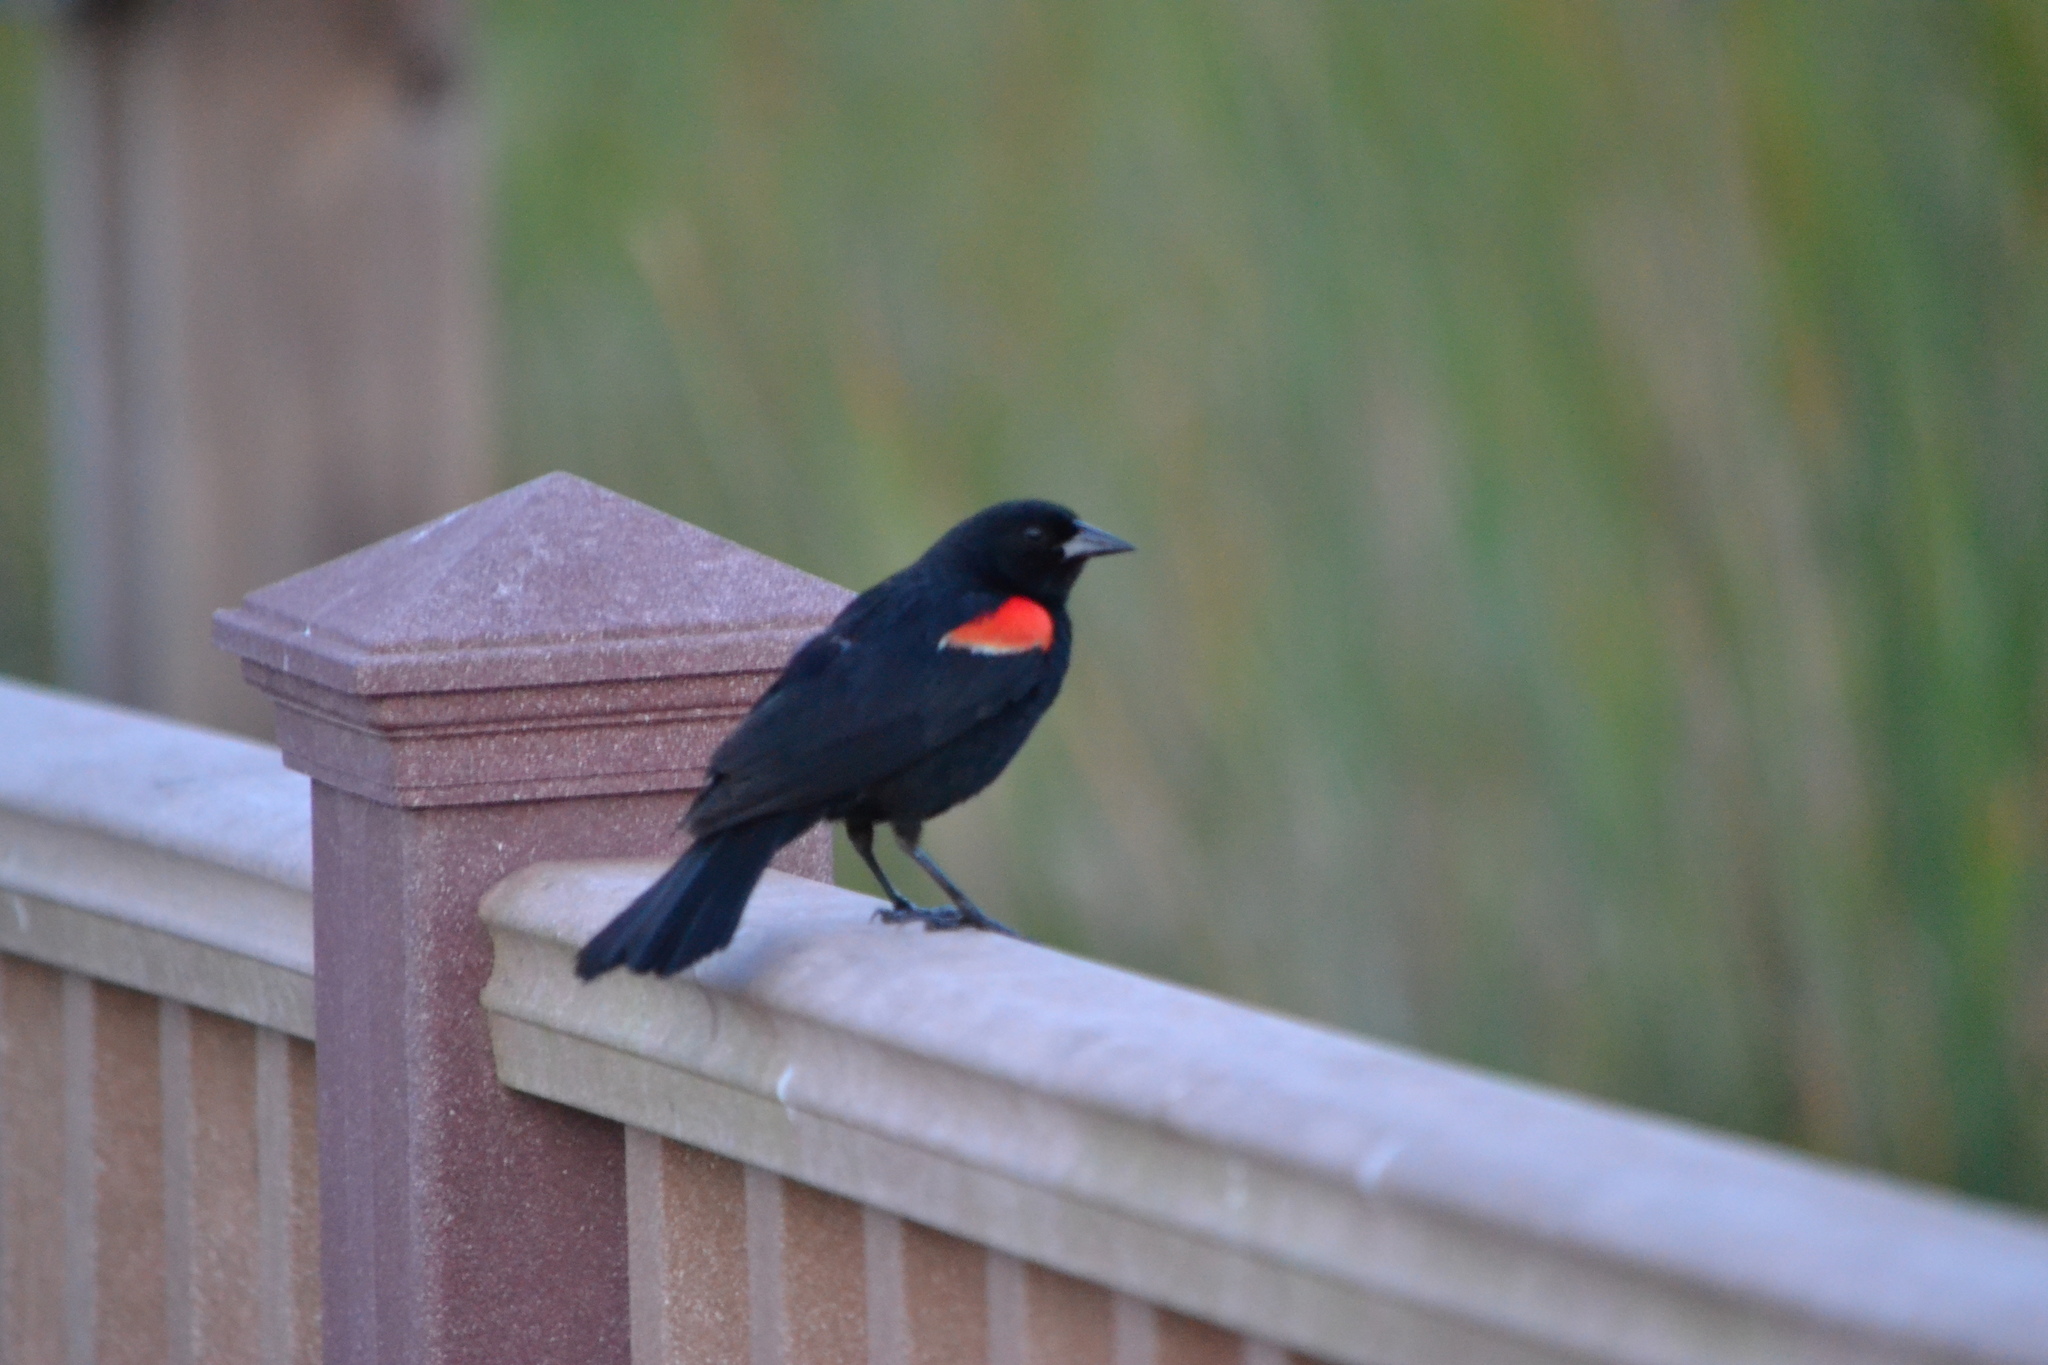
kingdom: Animalia
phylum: Chordata
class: Aves
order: Passeriformes
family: Icteridae
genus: Agelaius
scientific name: Agelaius phoeniceus
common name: Red-winged blackbird
